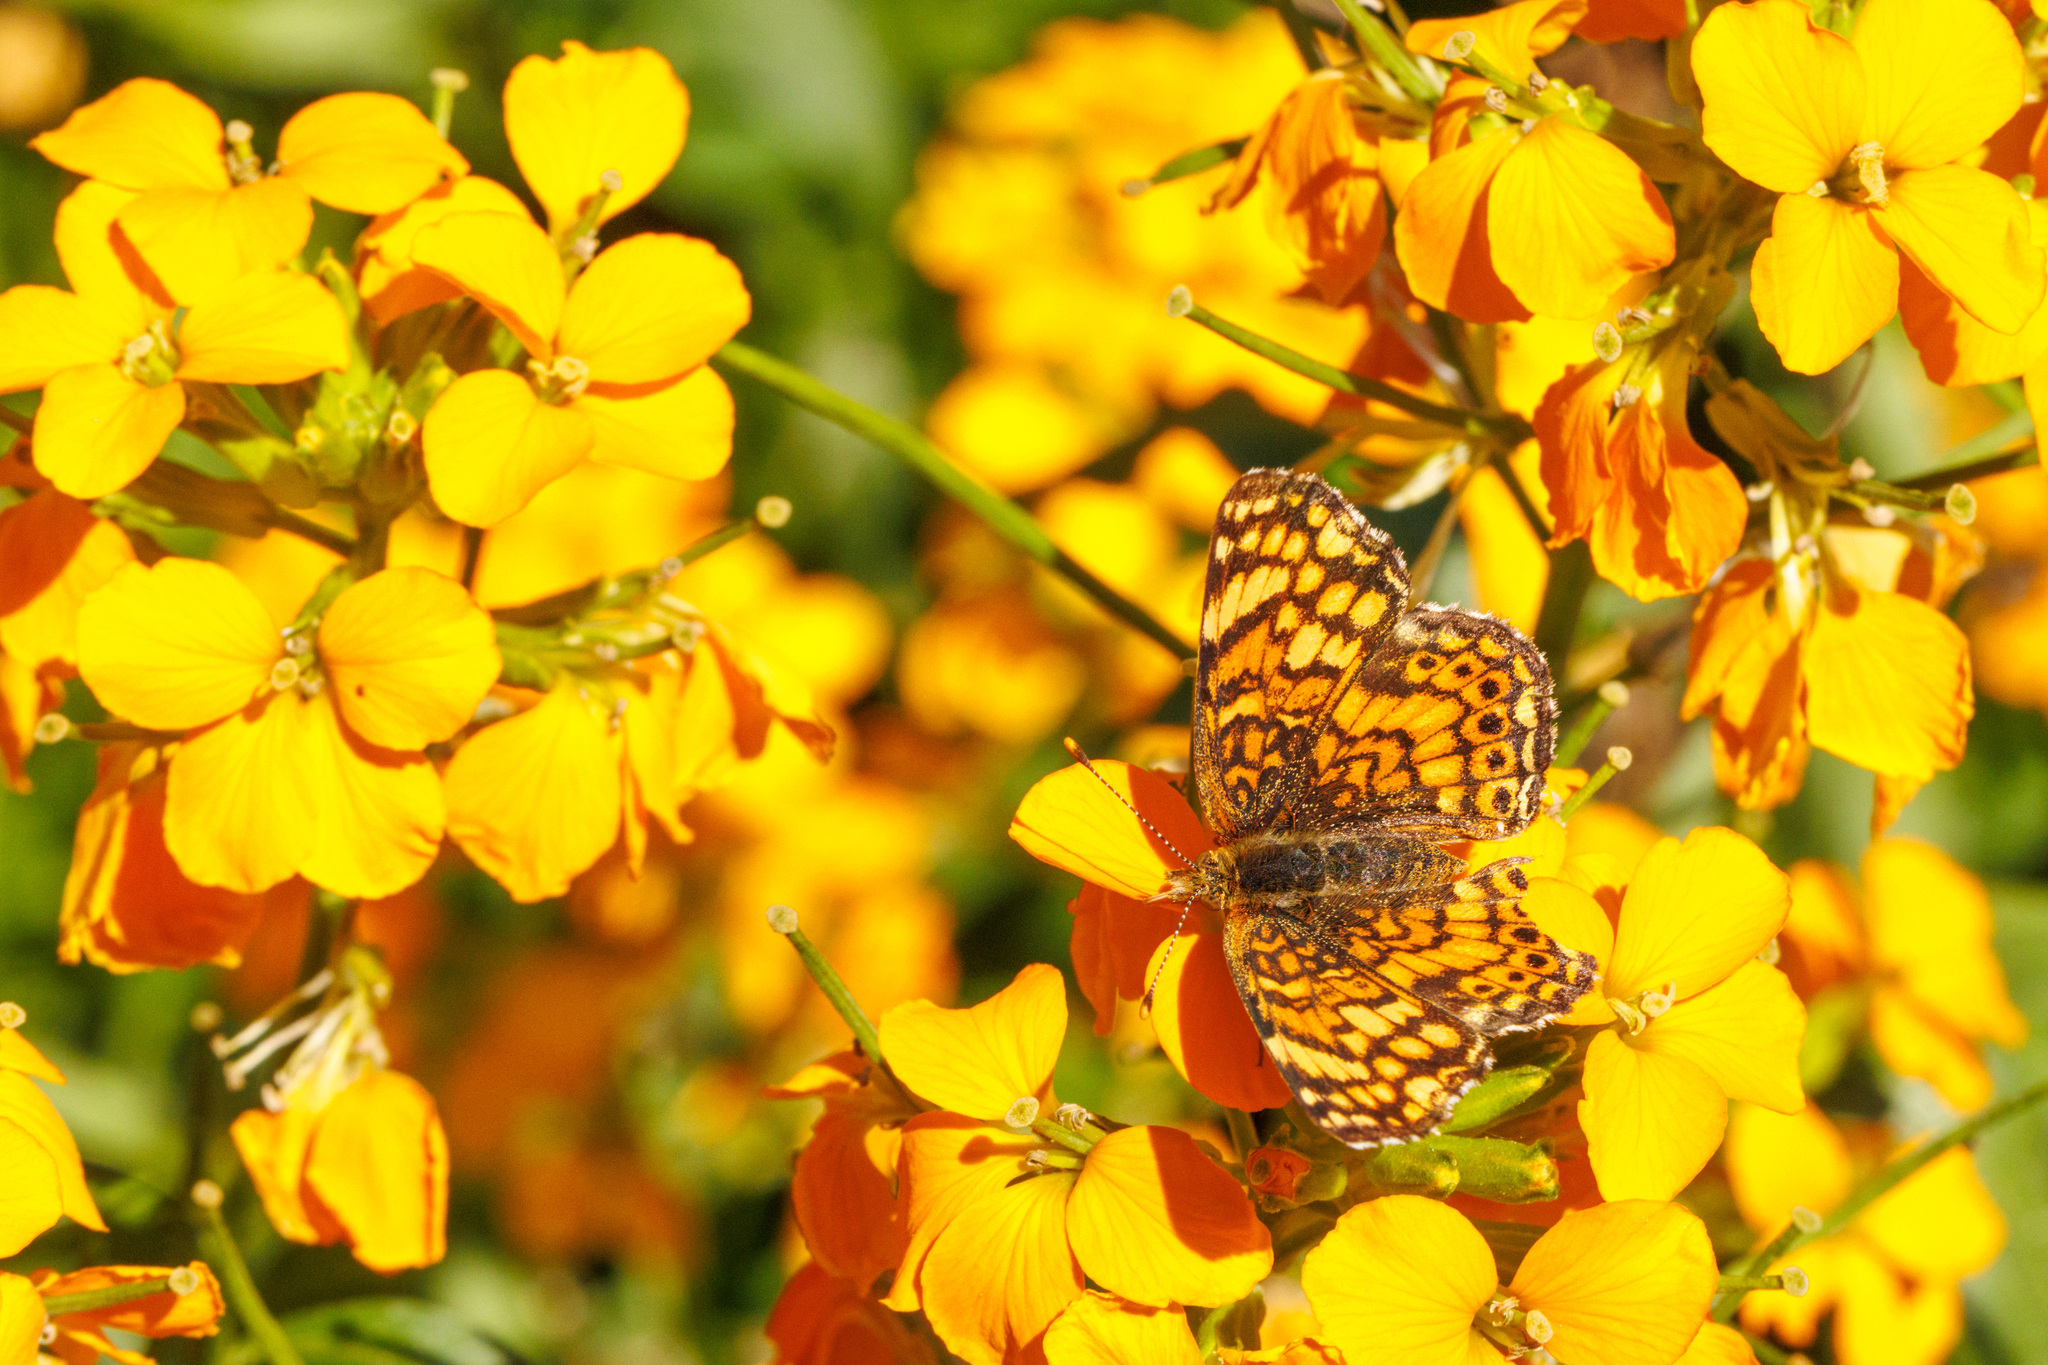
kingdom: Animalia
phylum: Arthropoda
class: Insecta
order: Lepidoptera
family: Nymphalidae
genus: Eresia
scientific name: Eresia aveyrona
